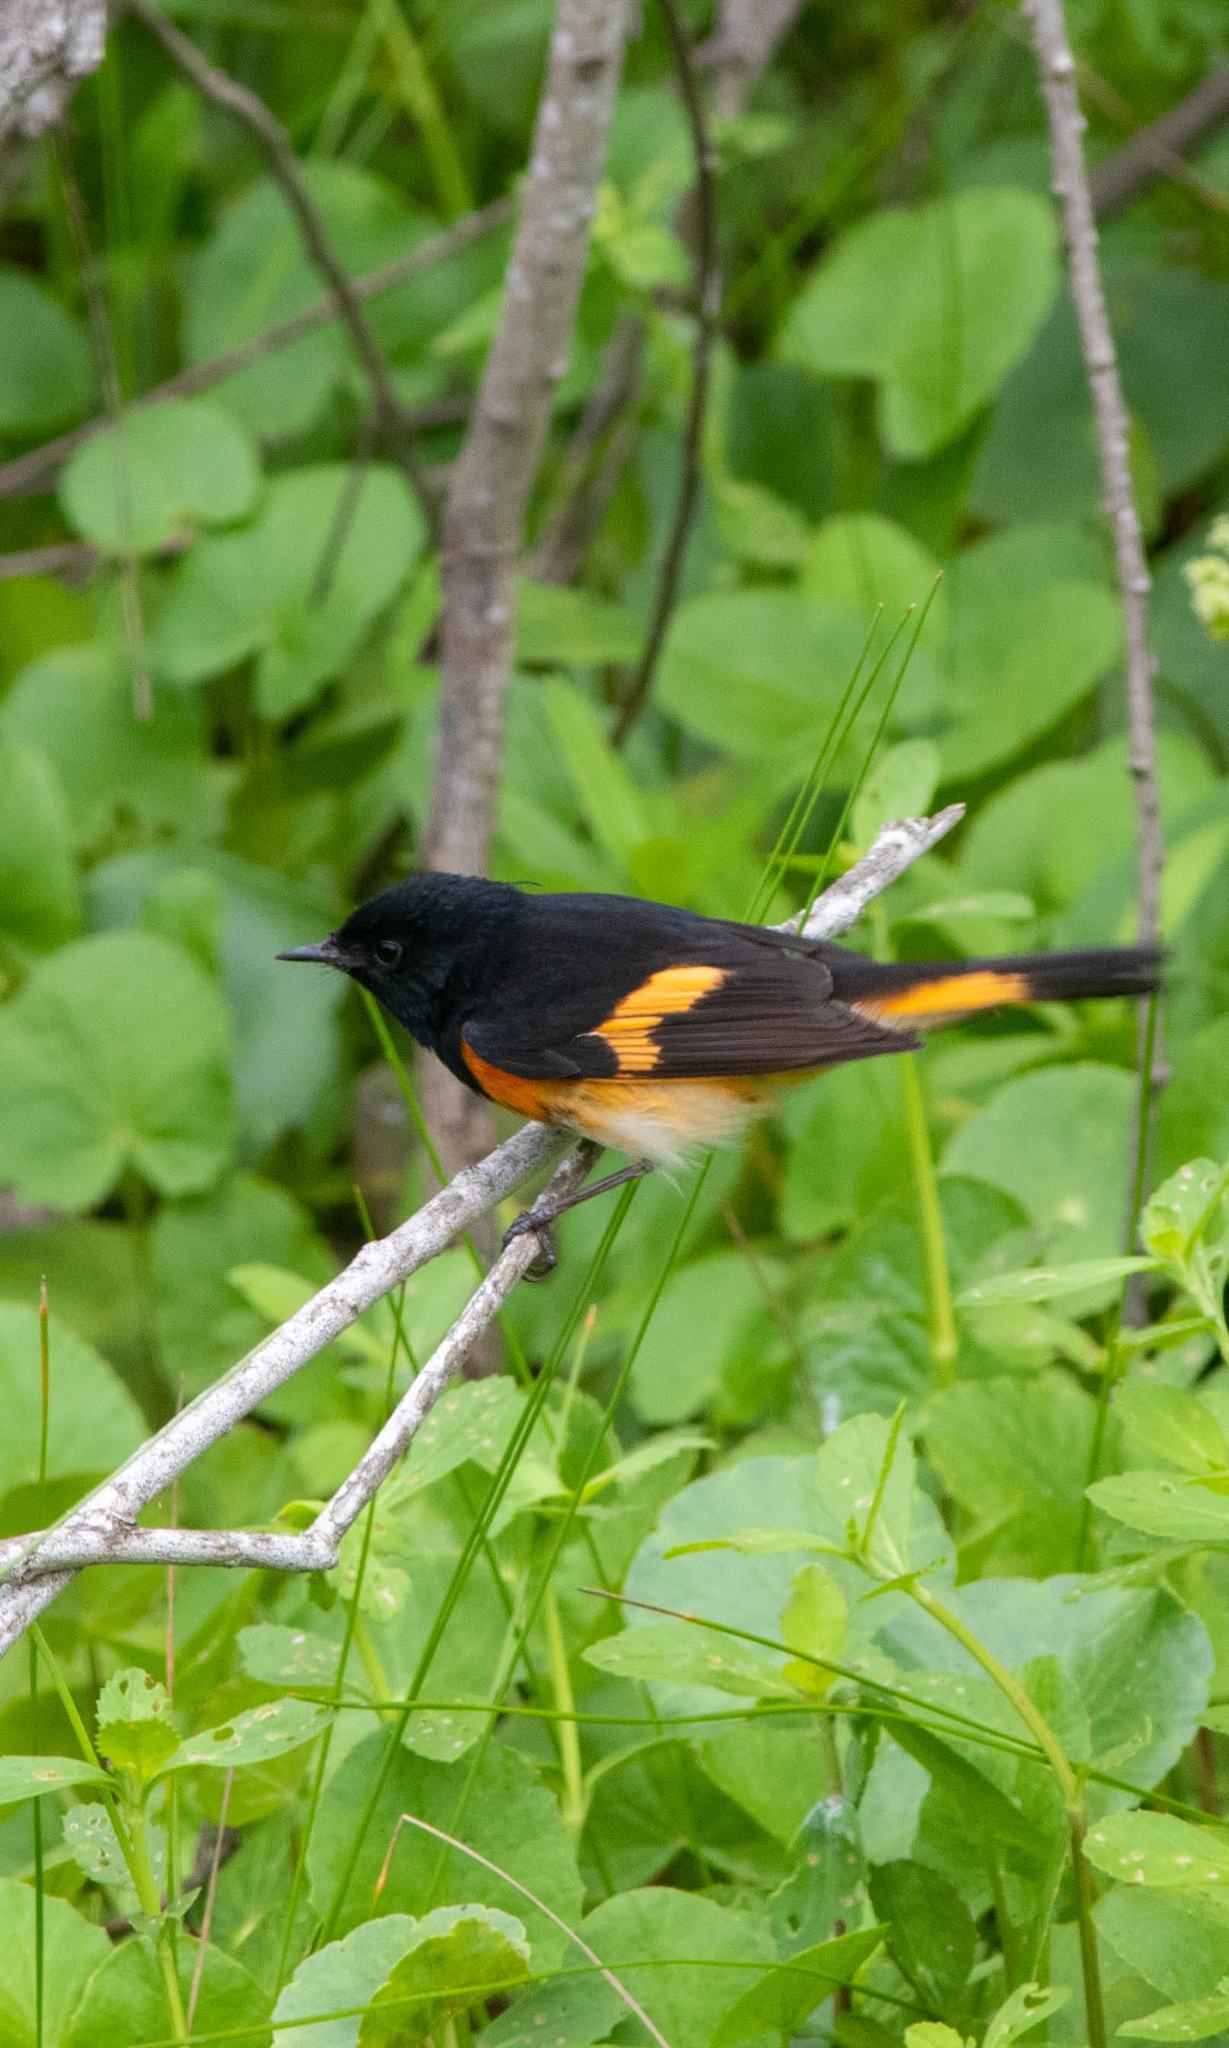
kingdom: Animalia
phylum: Chordata
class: Aves
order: Passeriformes
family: Parulidae
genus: Setophaga
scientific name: Setophaga ruticilla
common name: American redstart
